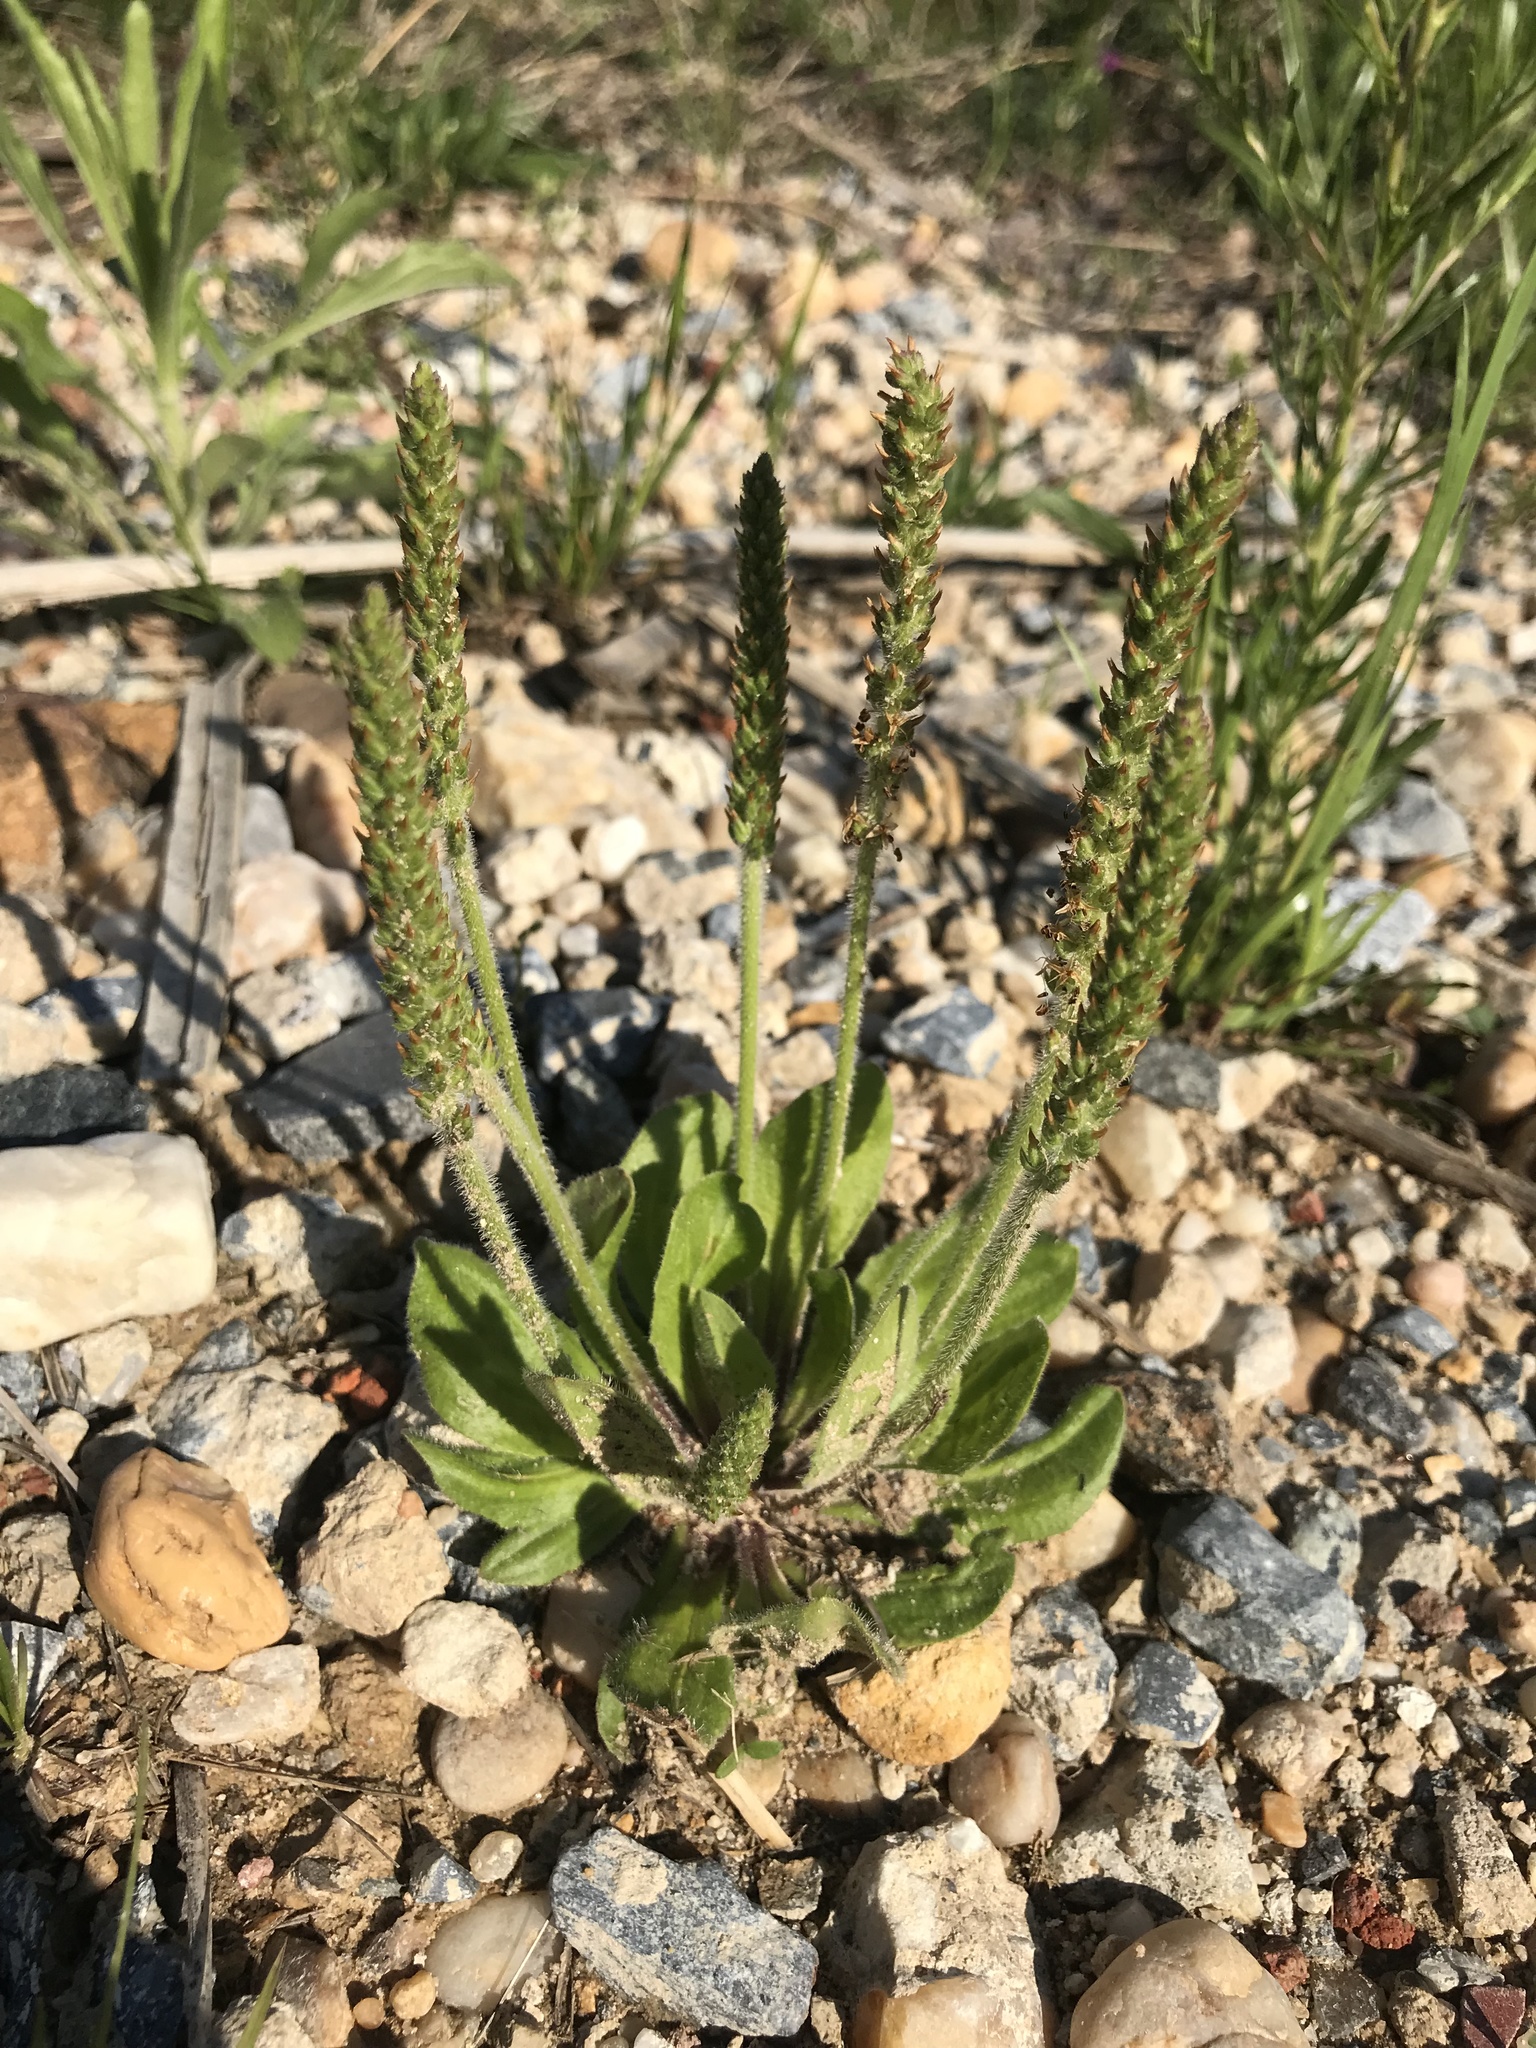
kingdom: Plantae
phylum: Tracheophyta
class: Magnoliopsida
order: Lamiales
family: Plantaginaceae
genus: Plantago
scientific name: Plantago virginica
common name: Hoary plantain
